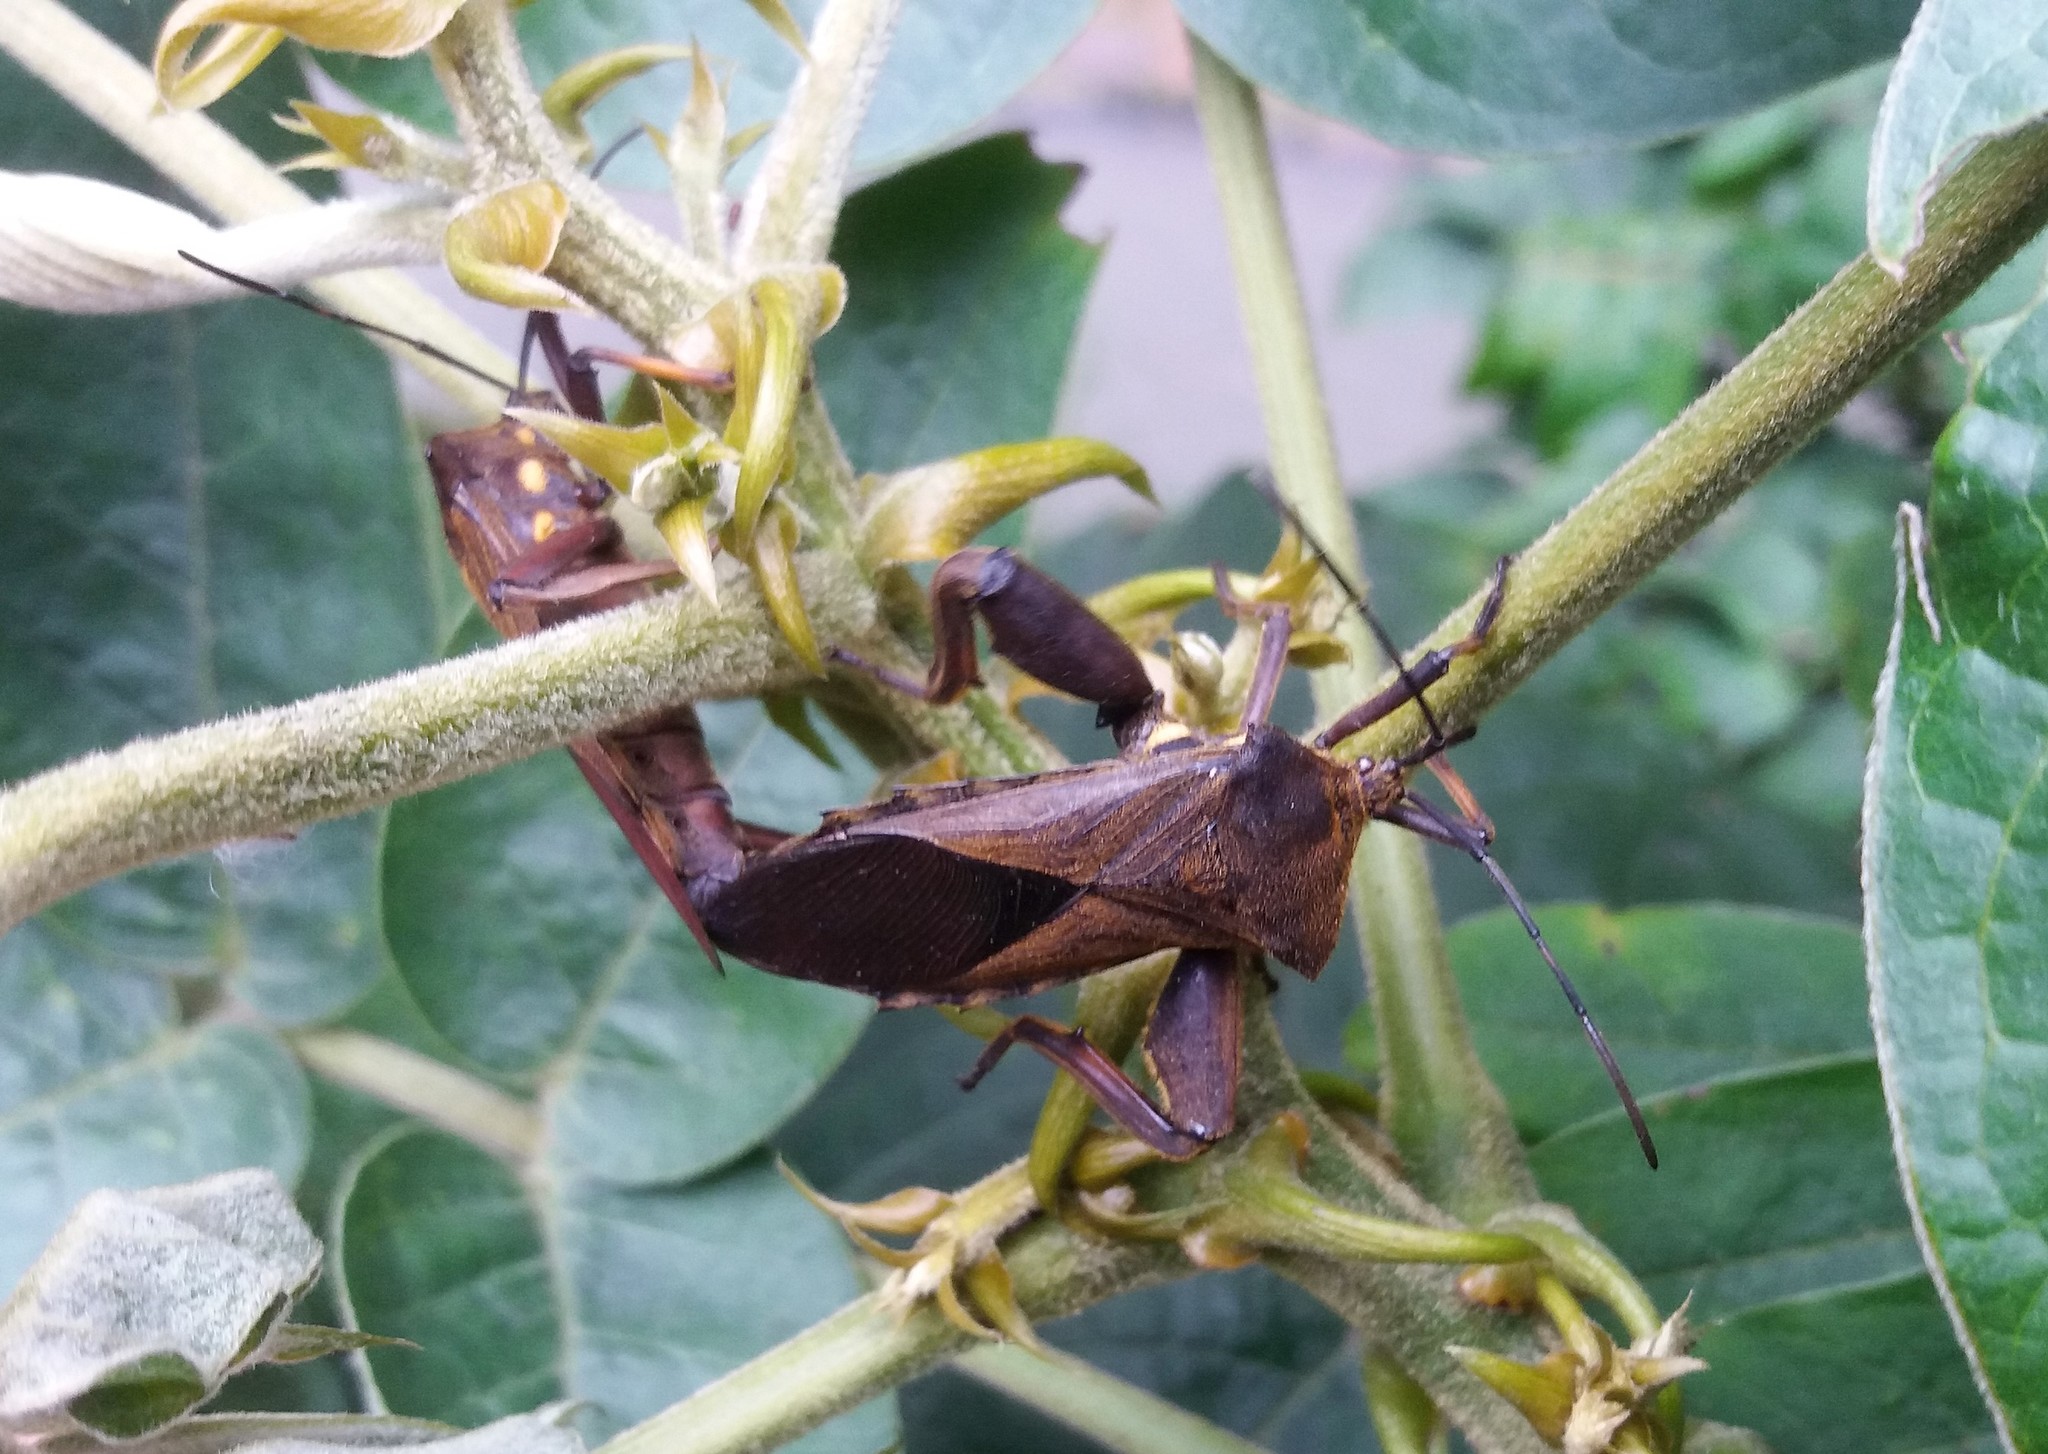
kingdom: Animalia
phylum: Arthropoda
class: Insecta
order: Hemiptera
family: Coreidae
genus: Thasus
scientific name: Thasus heteropus
